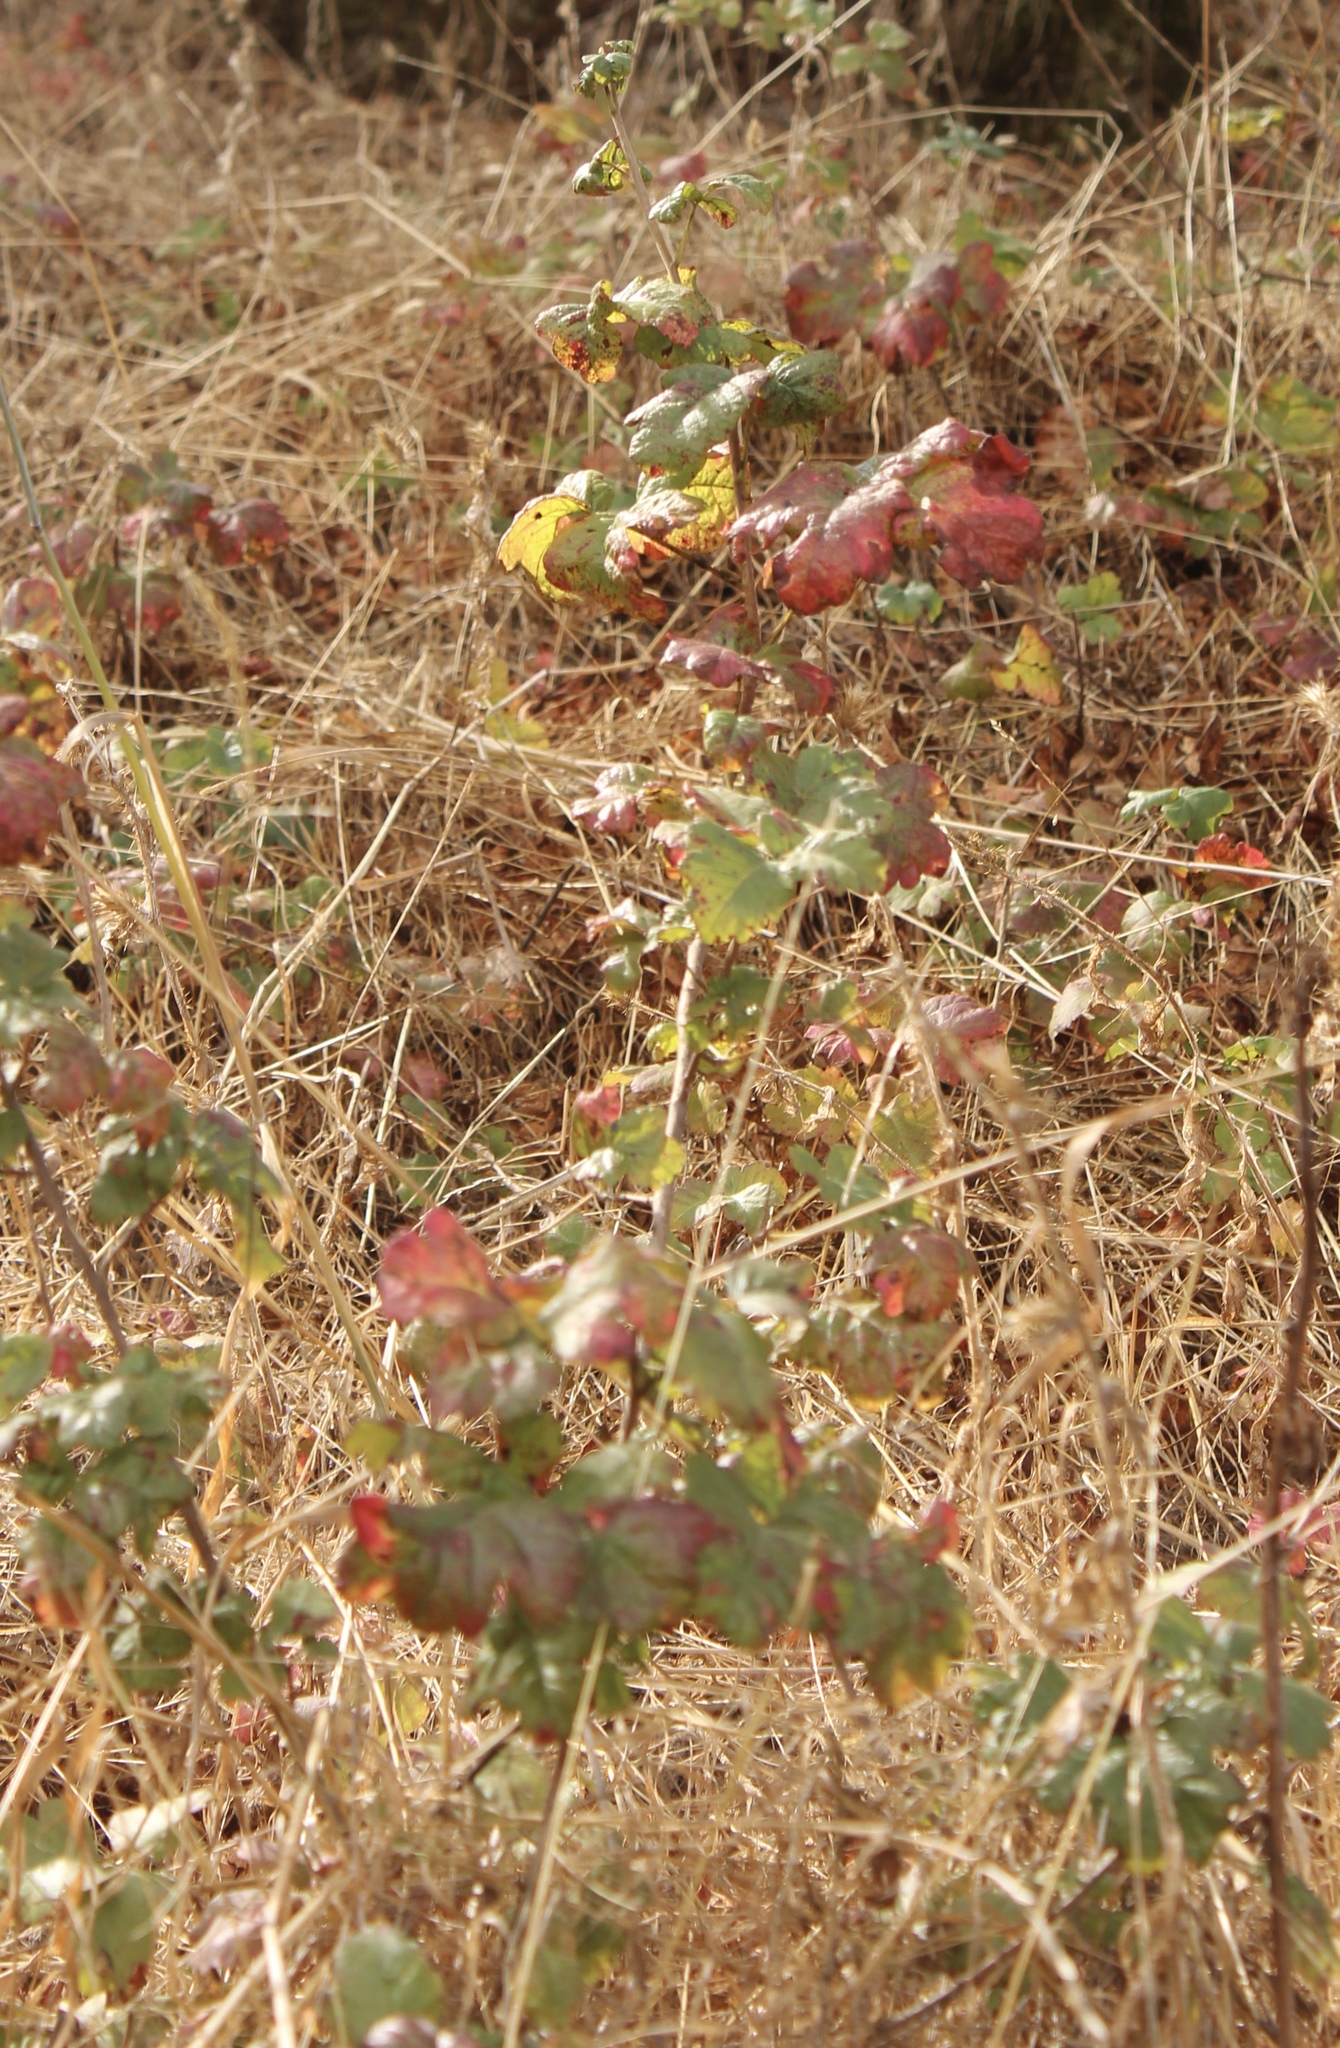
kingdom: Plantae
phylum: Tracheophyta
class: Magnoliopsida
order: Sapindales
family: Anacardiaceae
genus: Toxicodendron
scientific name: Toxicodendron diversilobum
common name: Pacific poison-oak
